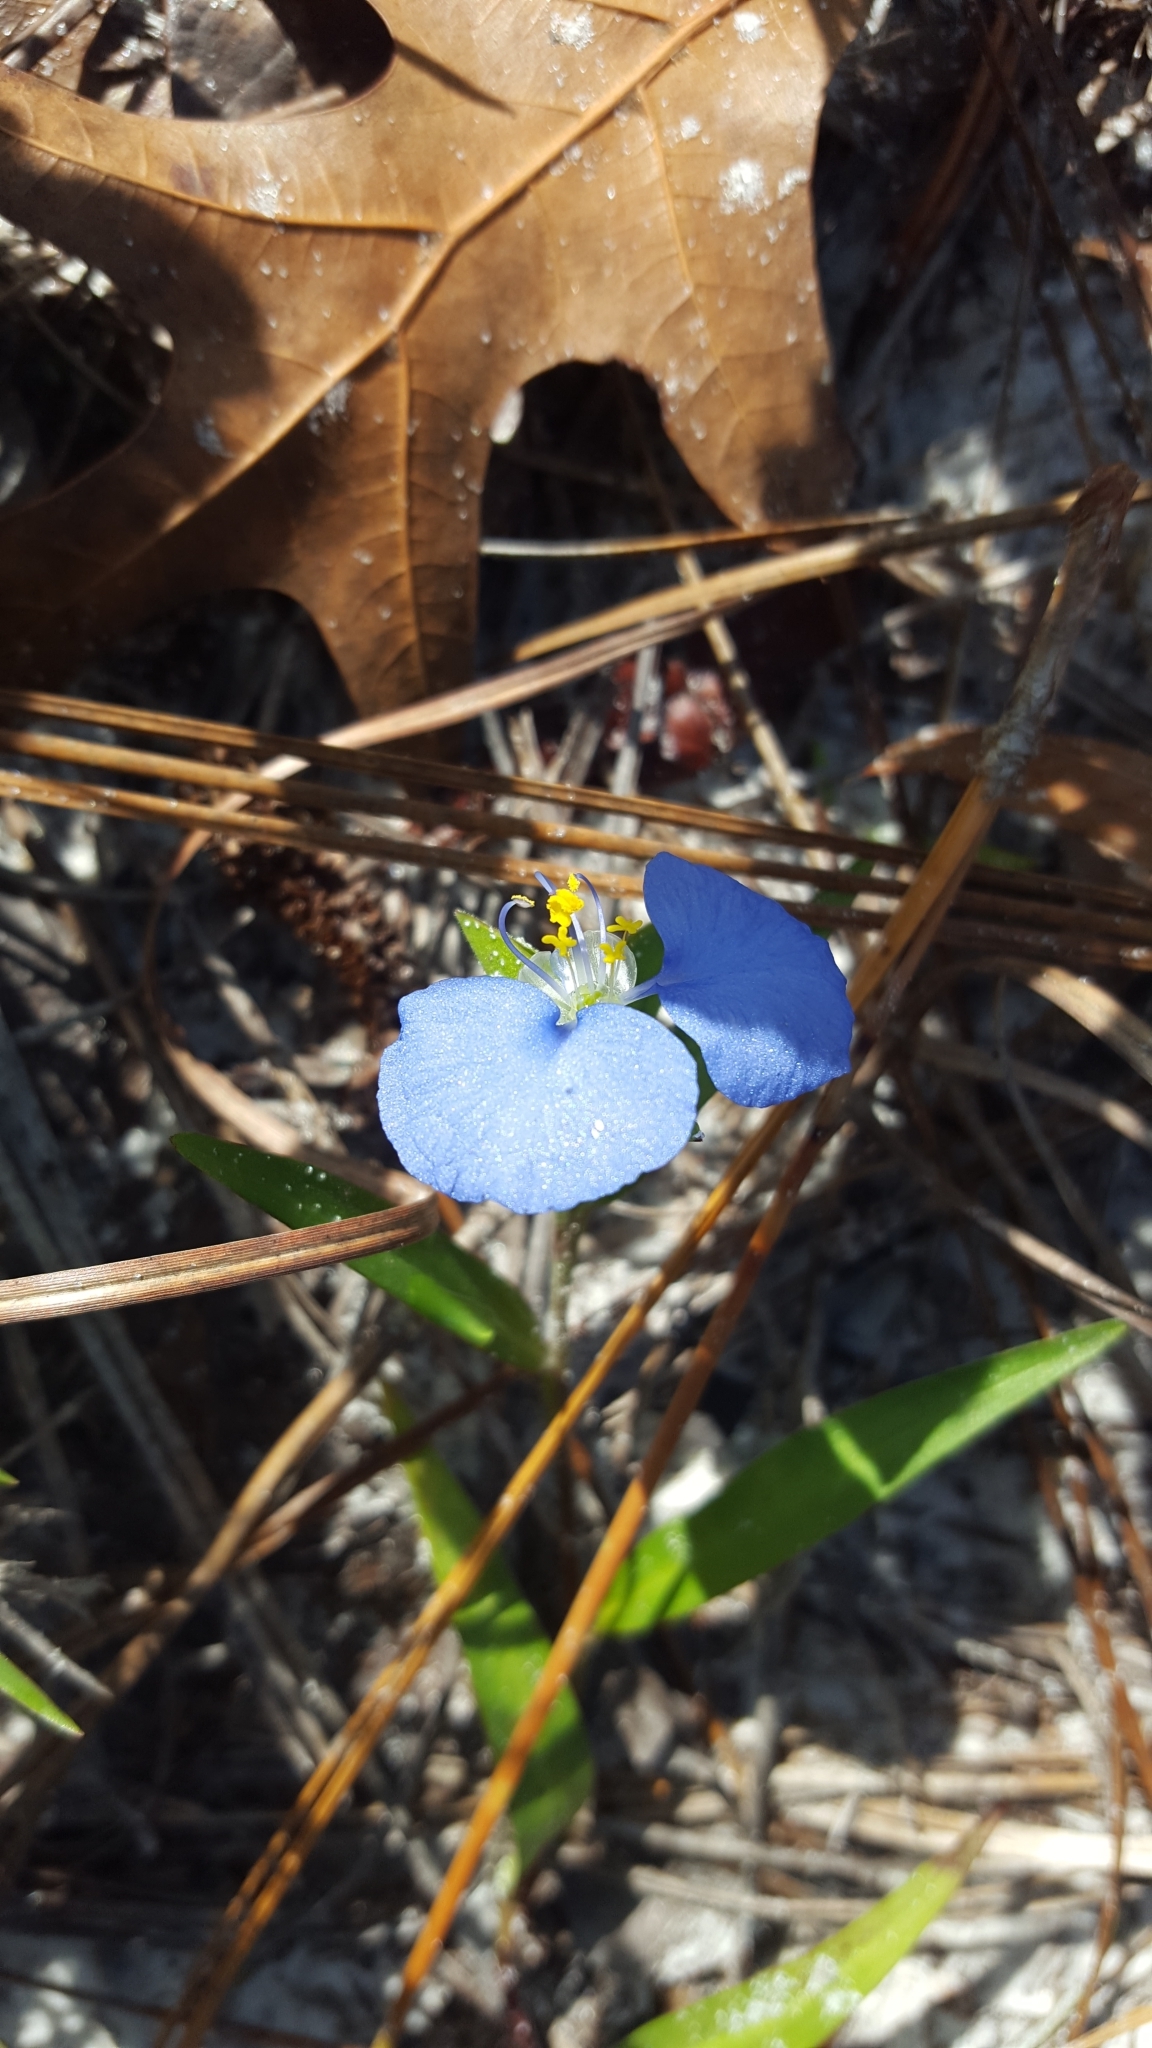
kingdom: Plantae
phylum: Tracheophyta
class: Liliopsida
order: Commelinales
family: Commelinaceae
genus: Commelina
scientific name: Commelina erecta
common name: Blousel blommetjie
